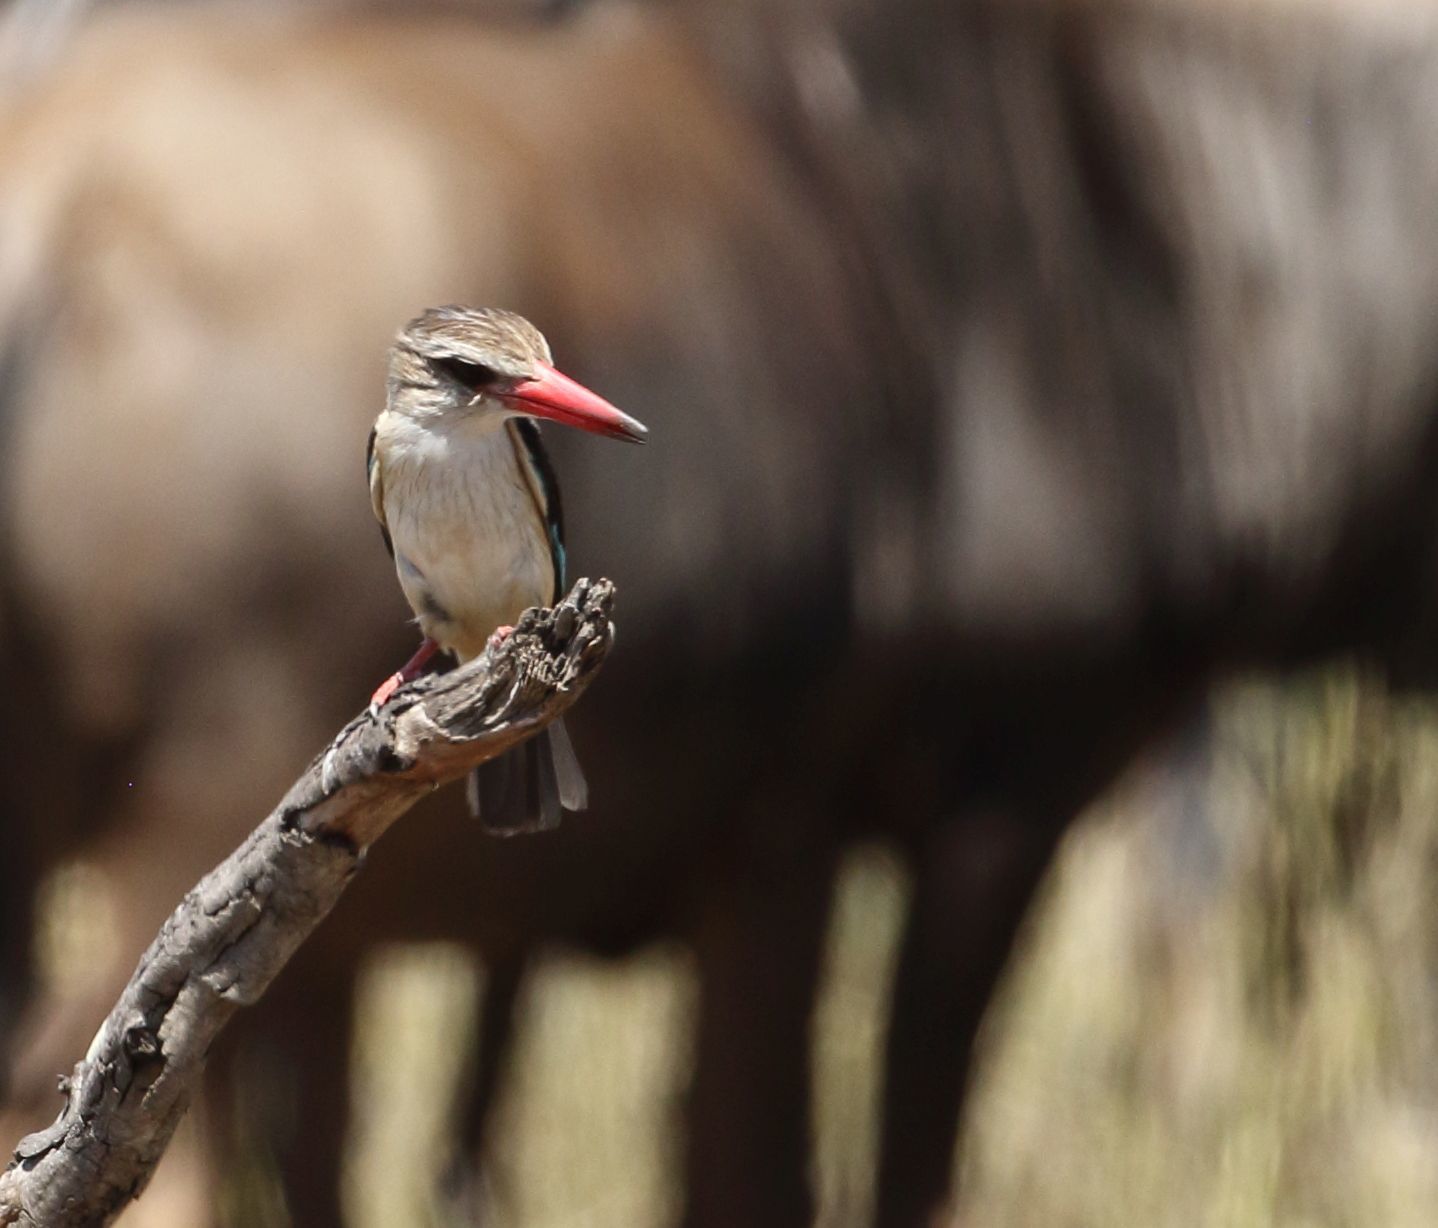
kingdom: Animalia
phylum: Chordata
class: Aves
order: Coraciiformes
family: Alcedinidae
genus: Halcyon
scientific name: Halcyon albiventris
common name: Brown-hooded kingfisher
